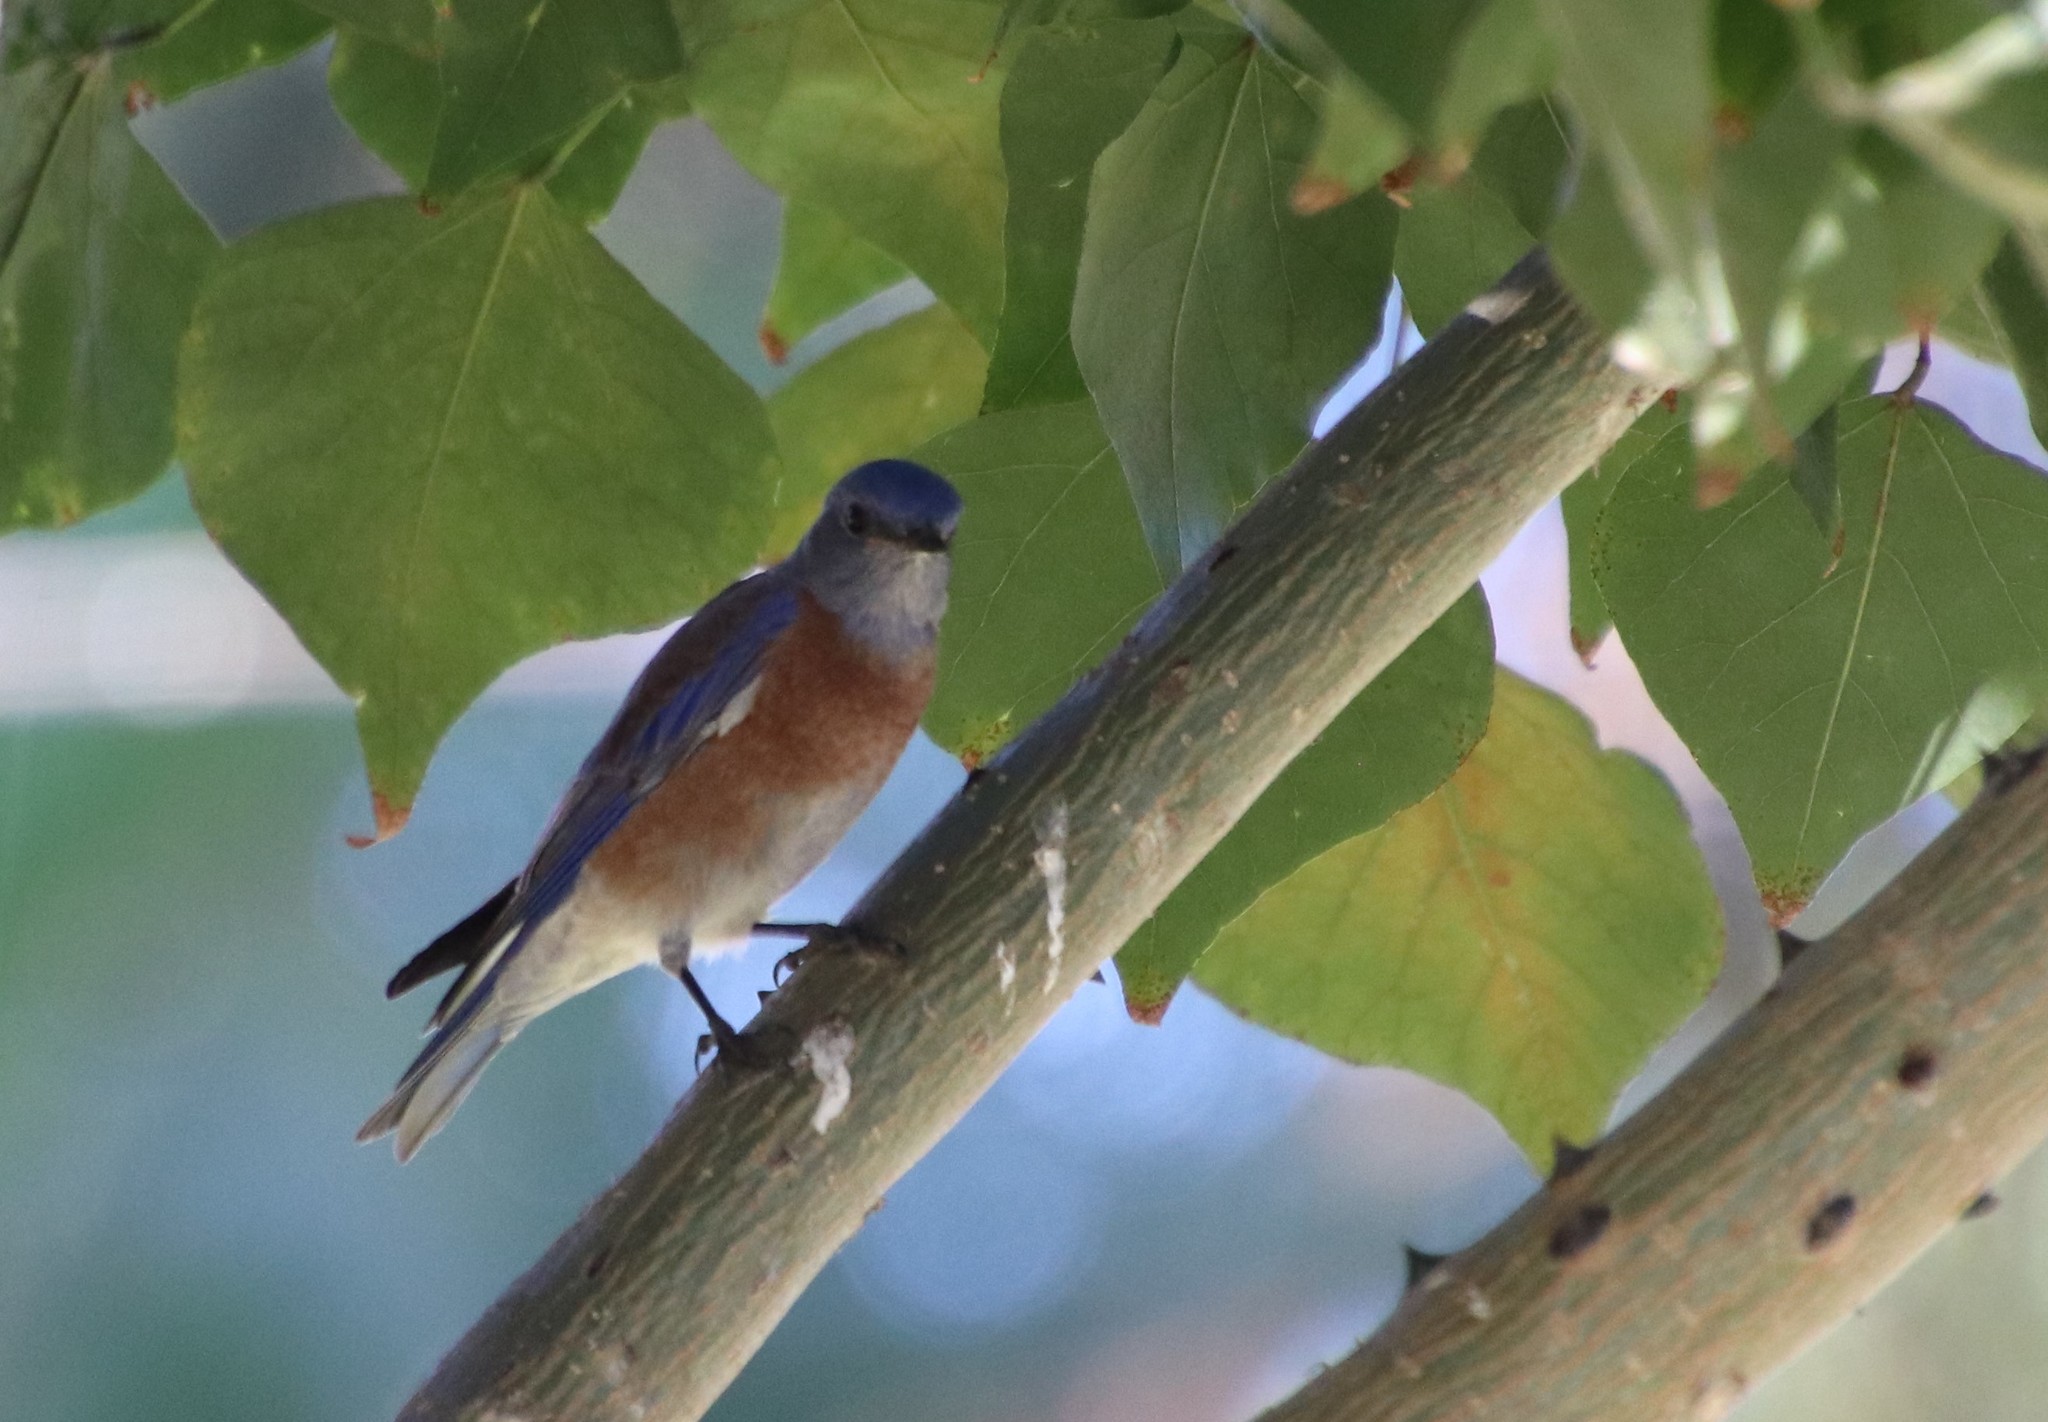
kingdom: Animalia
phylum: Chordata
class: Aves
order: Passeriformes
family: Turdidae
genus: Sialia
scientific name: Sialia mexicana
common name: Western bluebird
